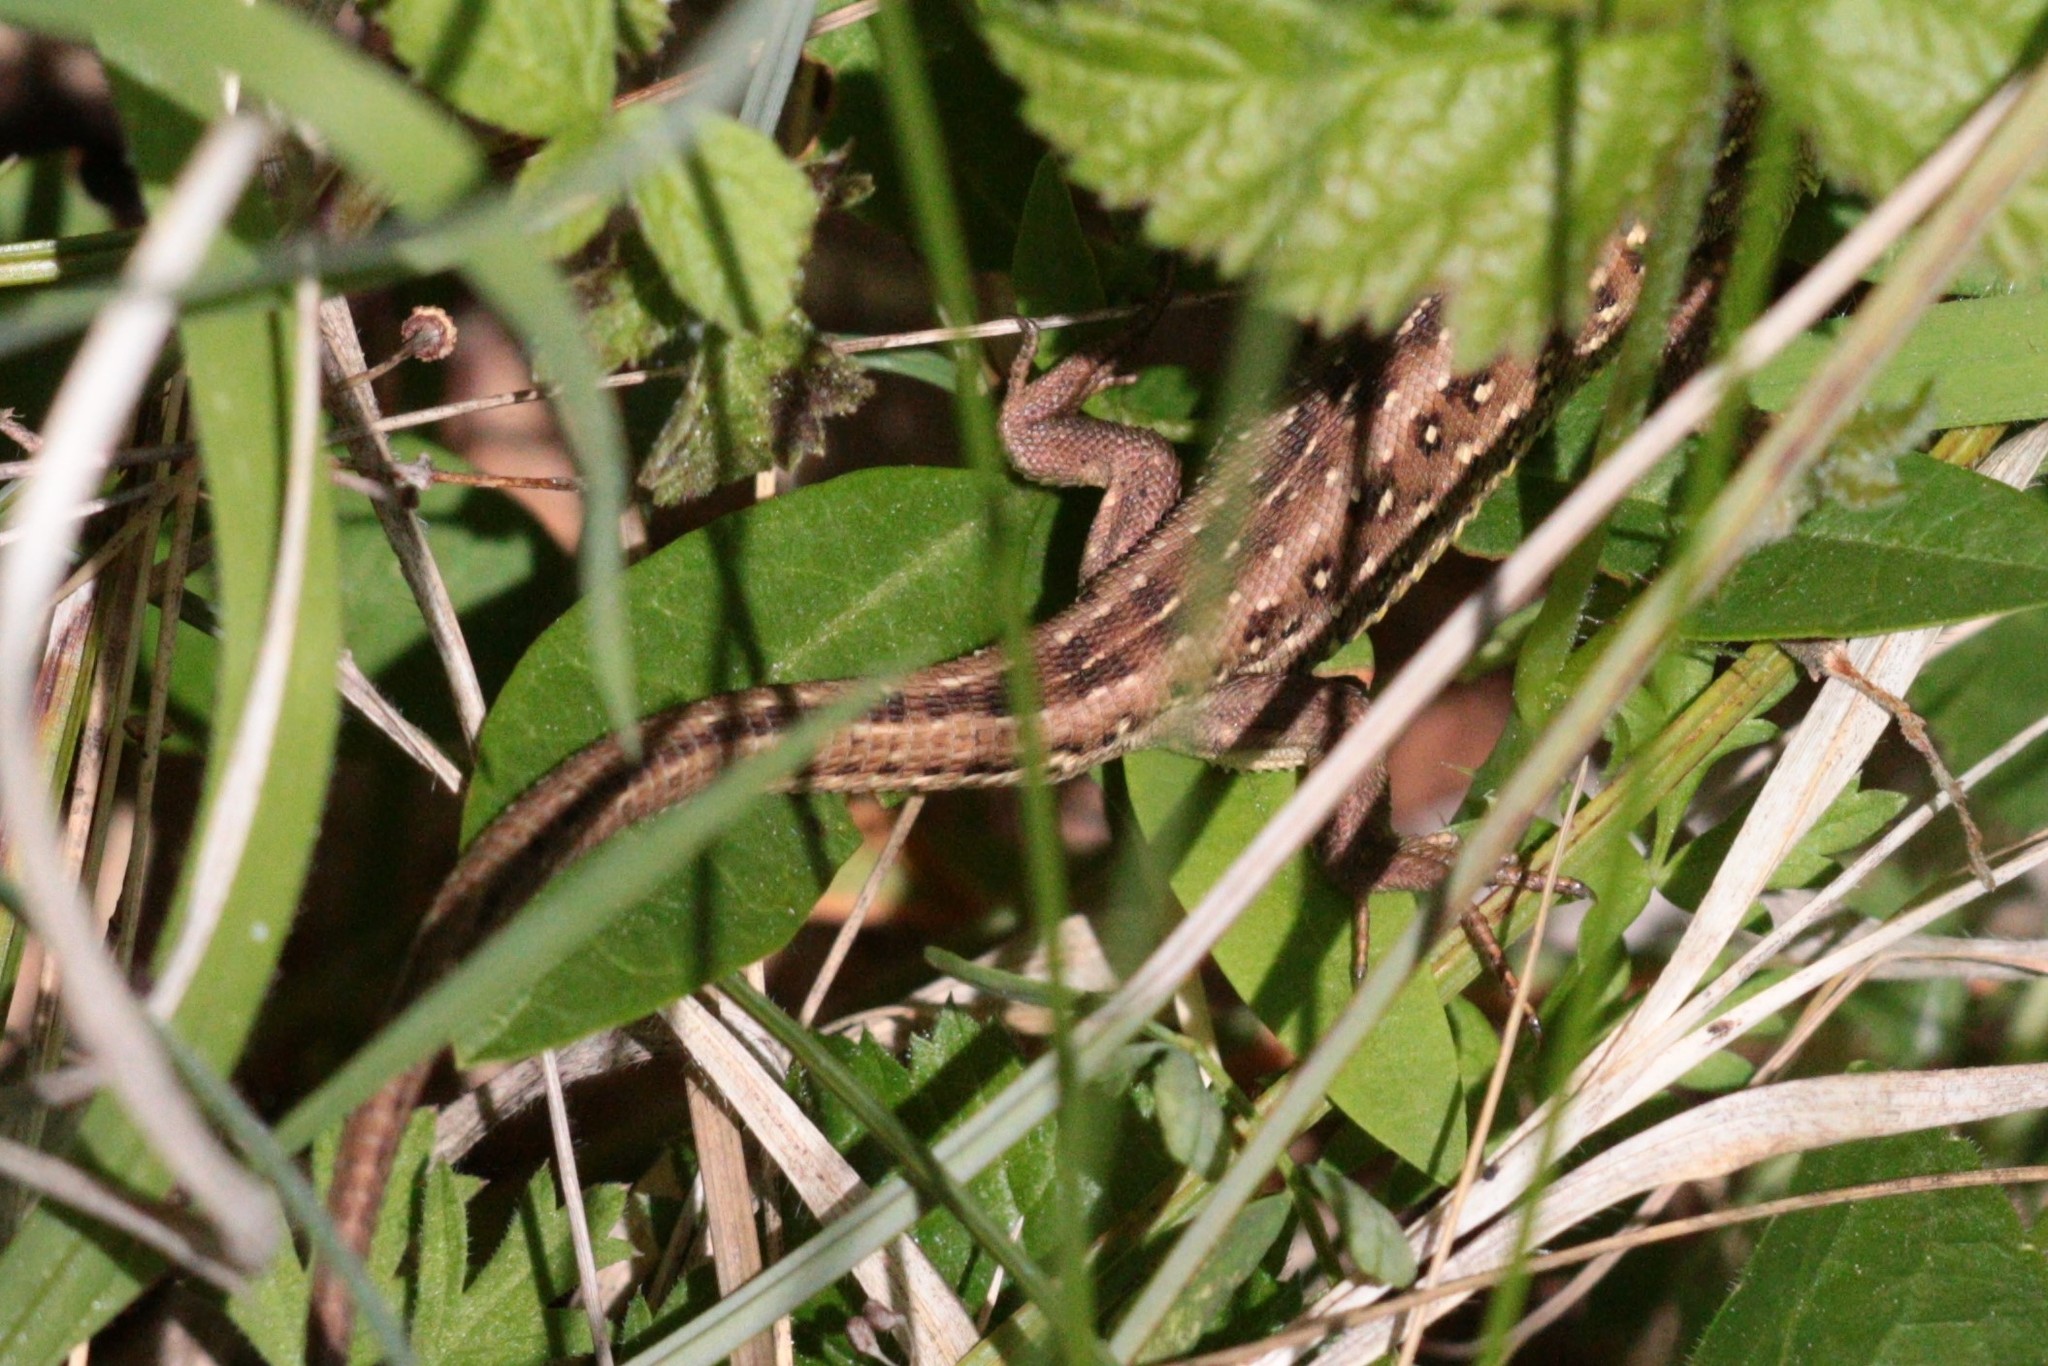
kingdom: Animalia
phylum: Chordata
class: Squamata
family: Lacertidae
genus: Lacerta
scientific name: Lacerta agilis
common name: Sand lizard
